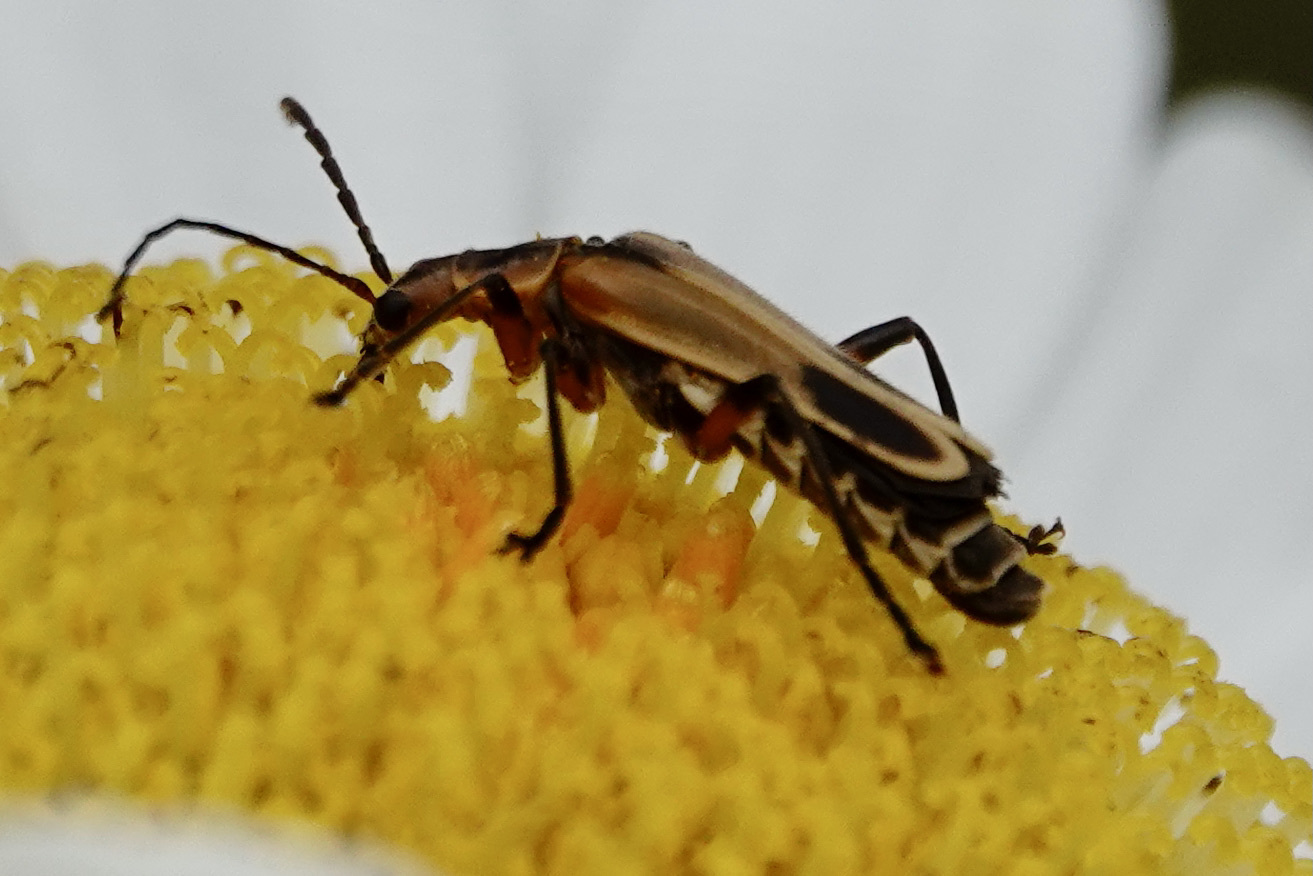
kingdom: Animalia
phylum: Arthropoda
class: Insecta
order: Coleoptera
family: Cantharidae
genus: Chauliognathus
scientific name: Chauliognathus marginatus
